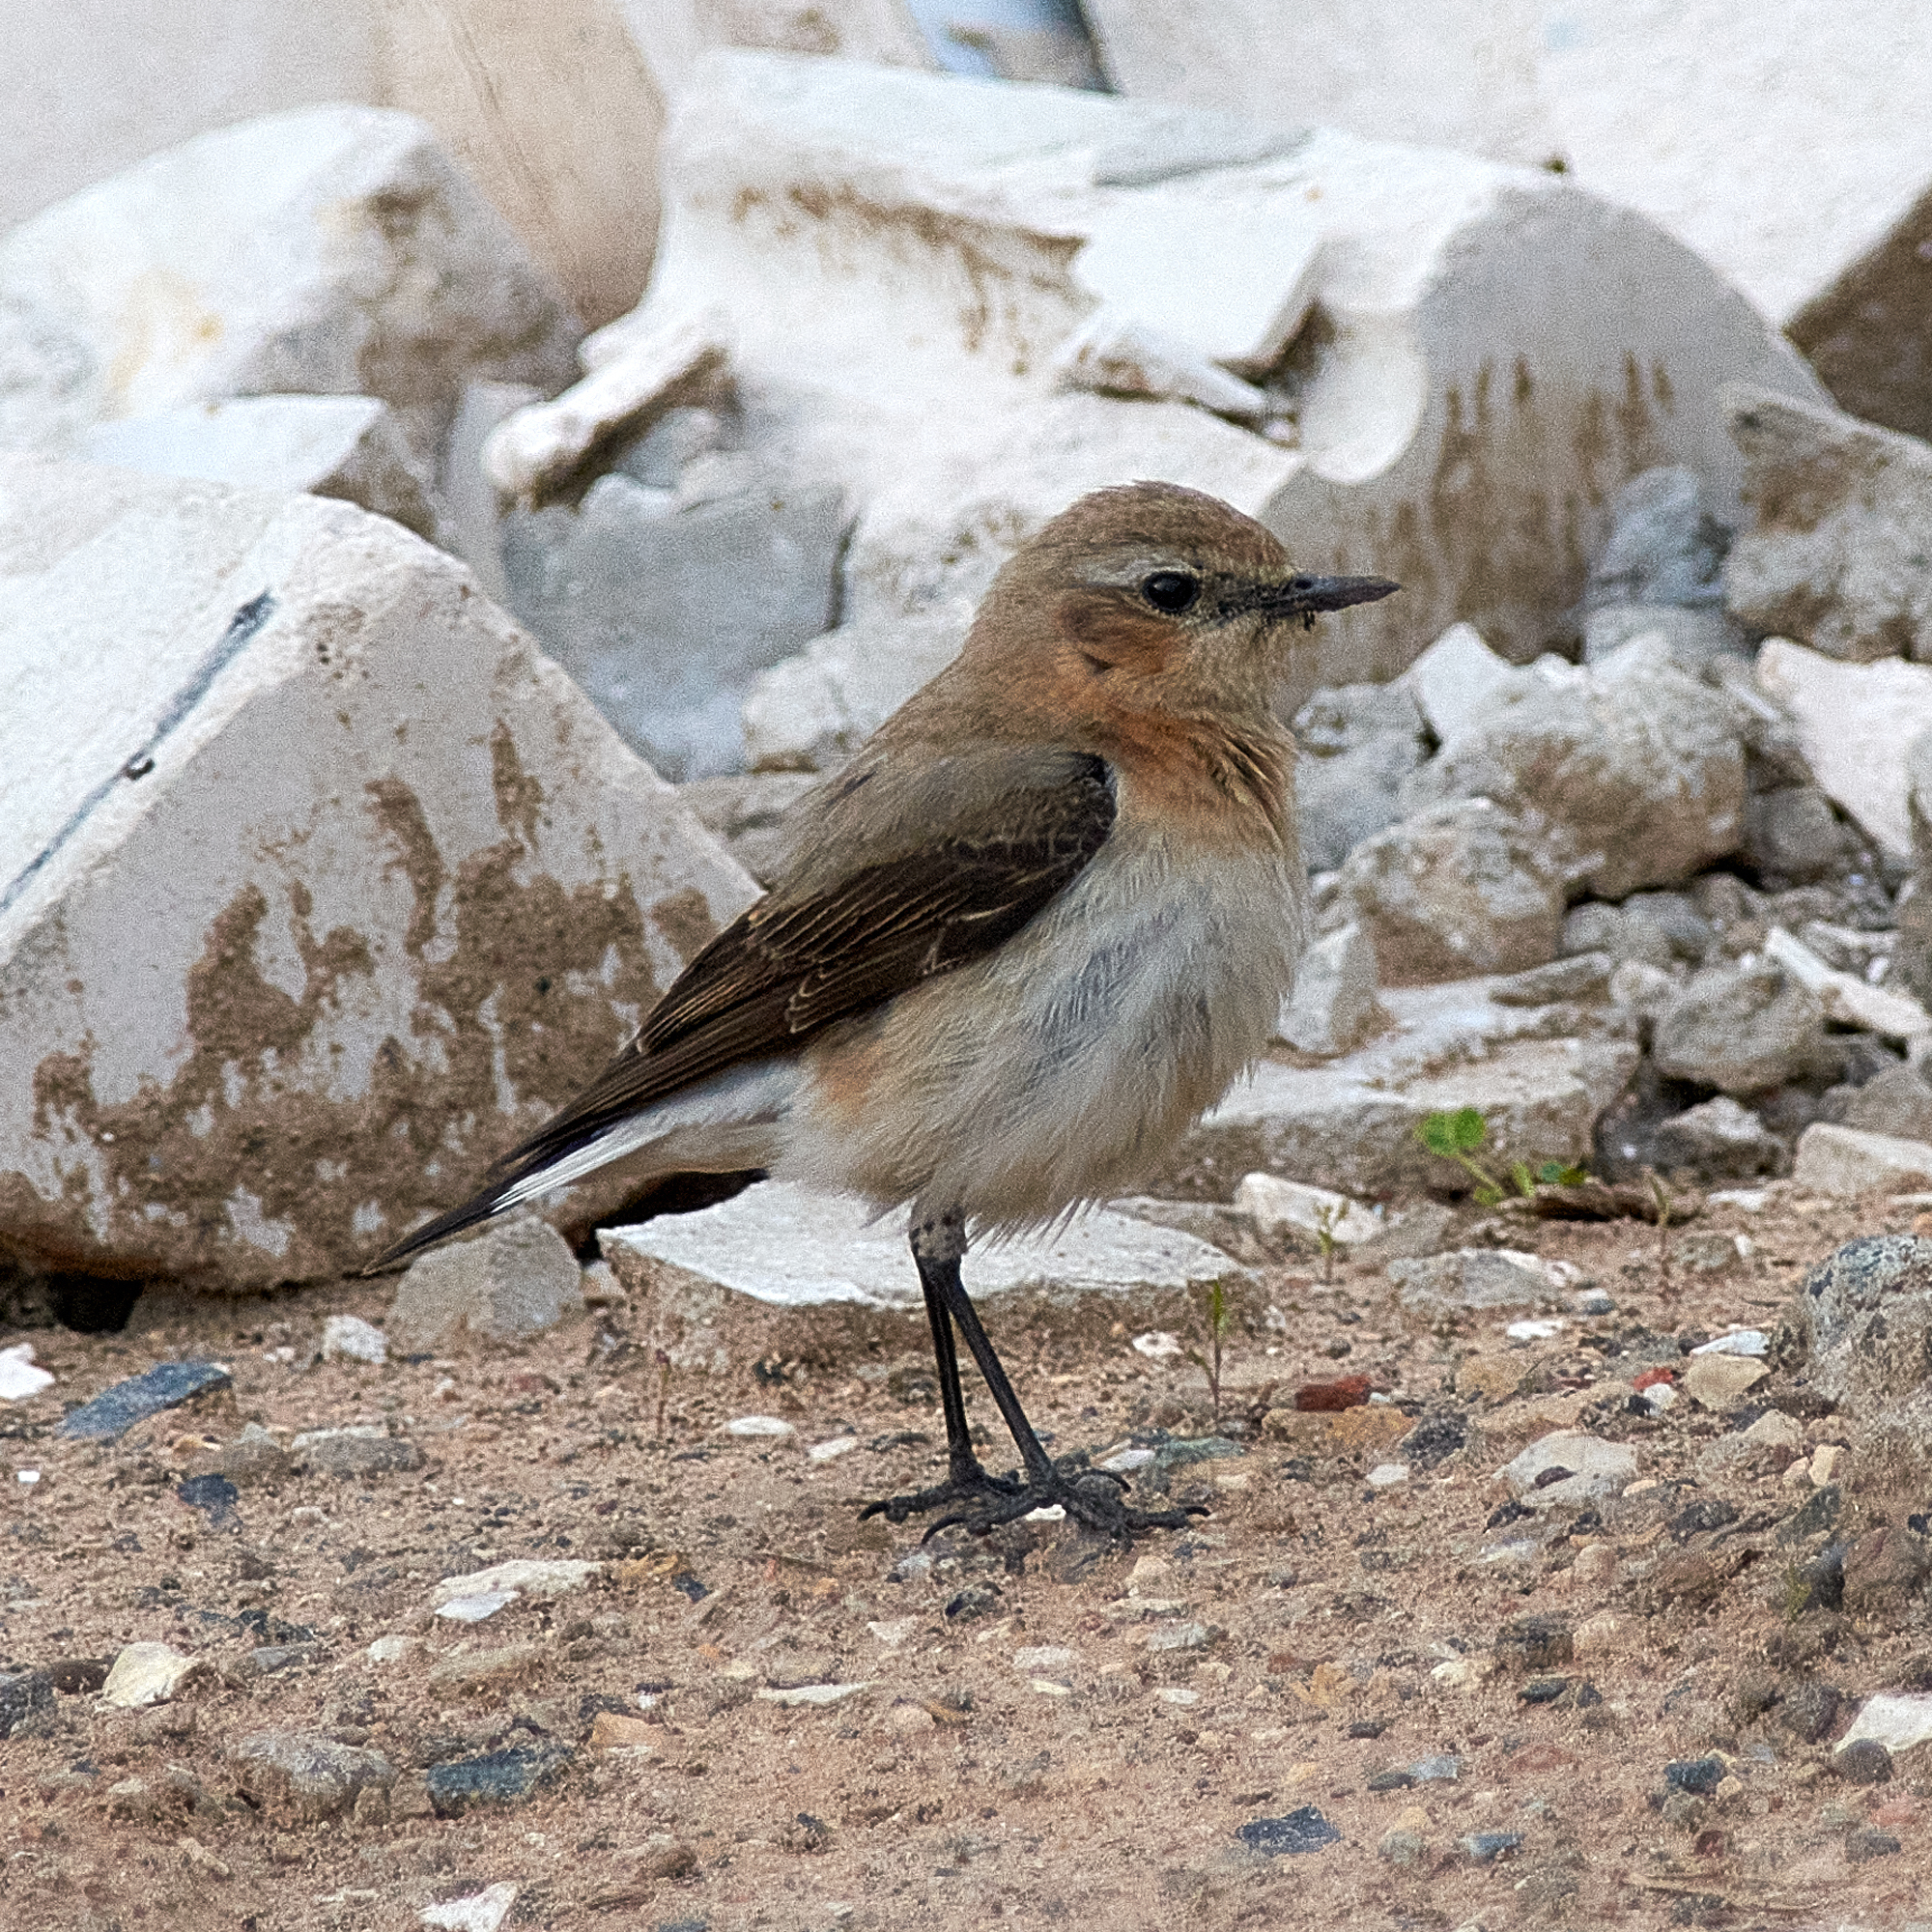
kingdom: Animalia
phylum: Chordata
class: Aves
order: Passeriformes
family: Muscicapidae
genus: Oenanthe
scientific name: Oenanthe oenanthe
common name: Northern wheatear
